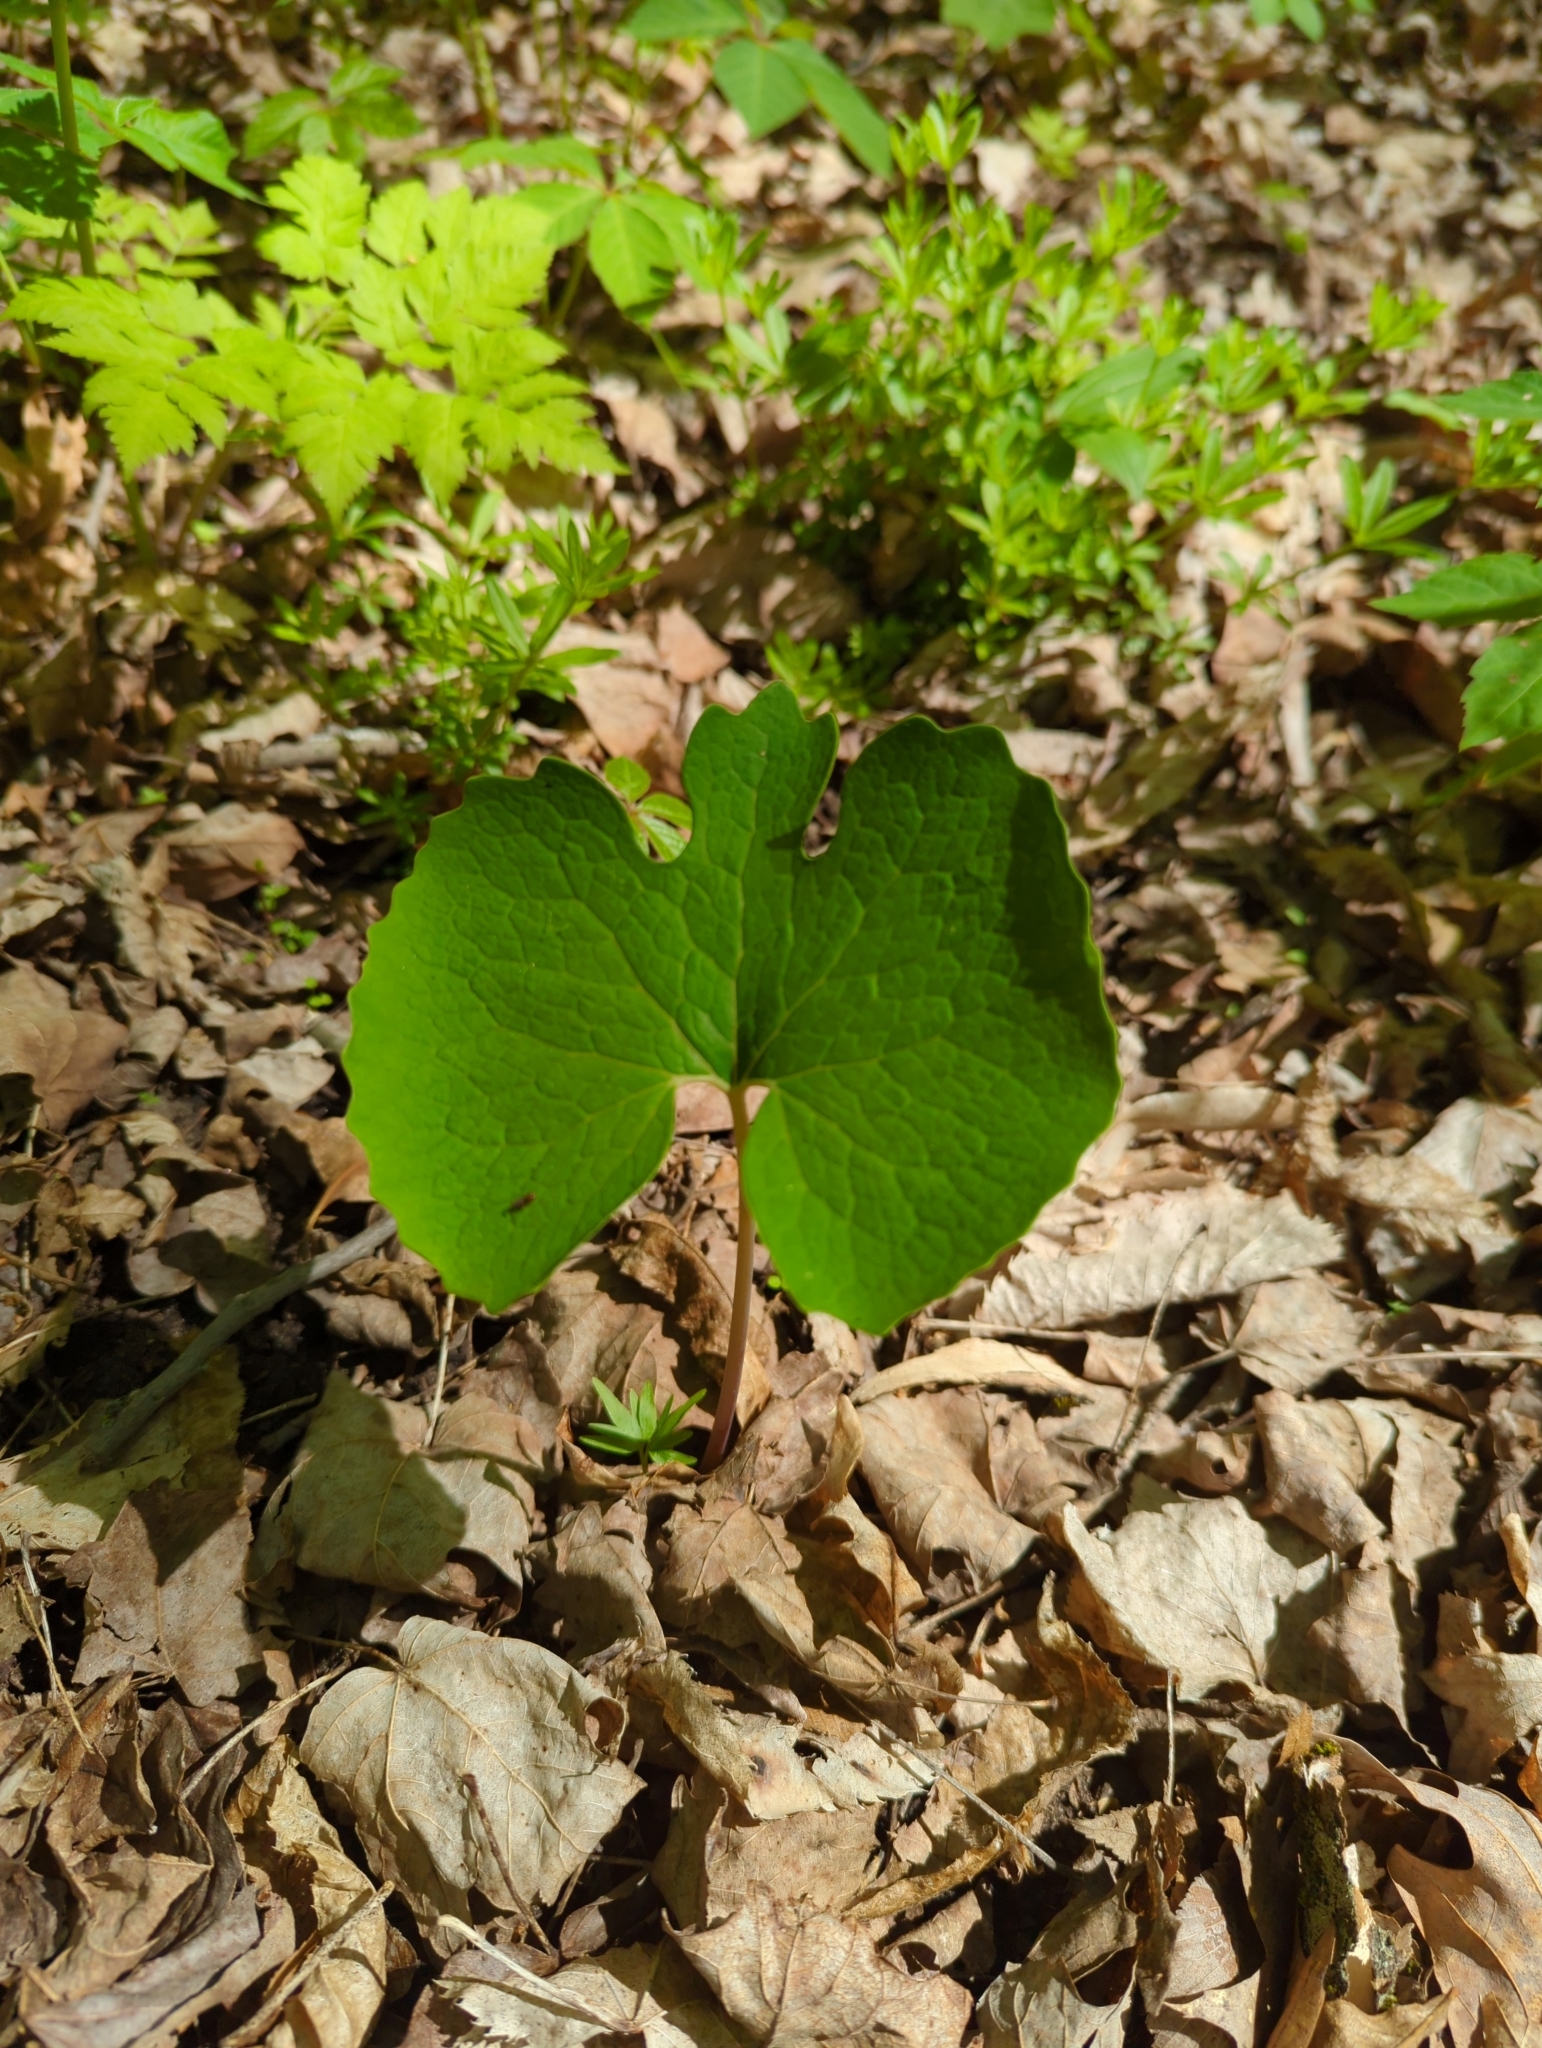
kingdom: Plantae
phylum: Tracheophyta
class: Magnoliopsida
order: Ranunculales
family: Papaveraceae
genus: Sanguinaria
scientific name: Sanguinaria canadensis
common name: Bloodroot
